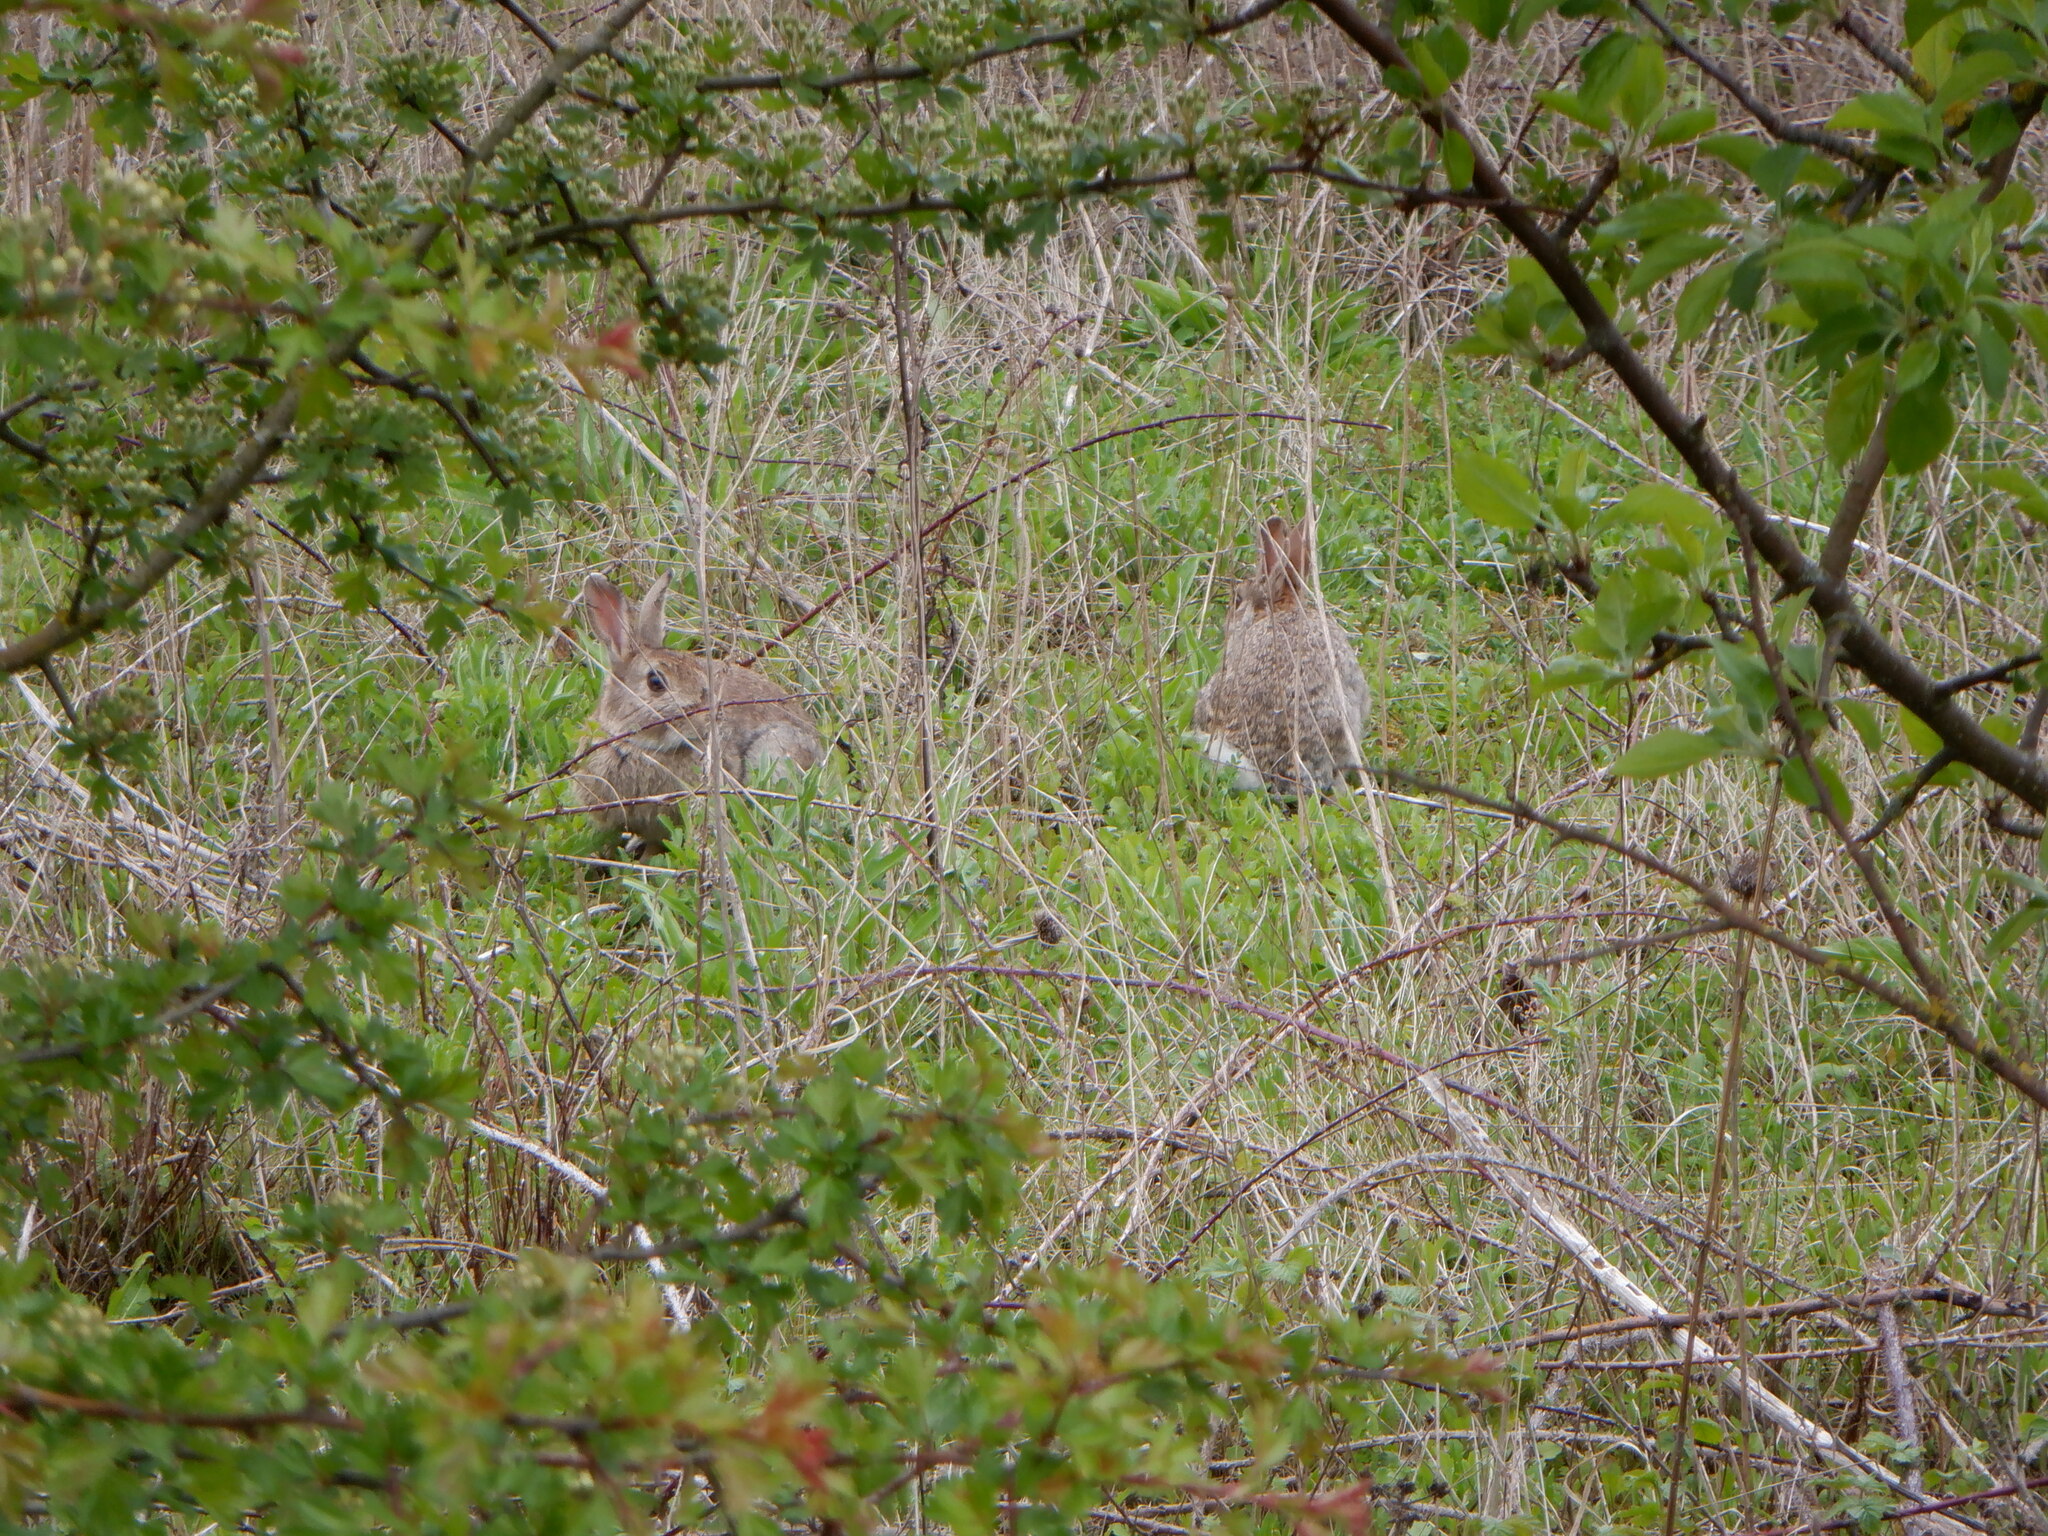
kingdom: Animalia
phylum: Chordata
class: Mammalia
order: Lagomorpha
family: Leporidae
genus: Oryctolagus
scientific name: Oryctolagus cuniculus
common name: European rabbit
